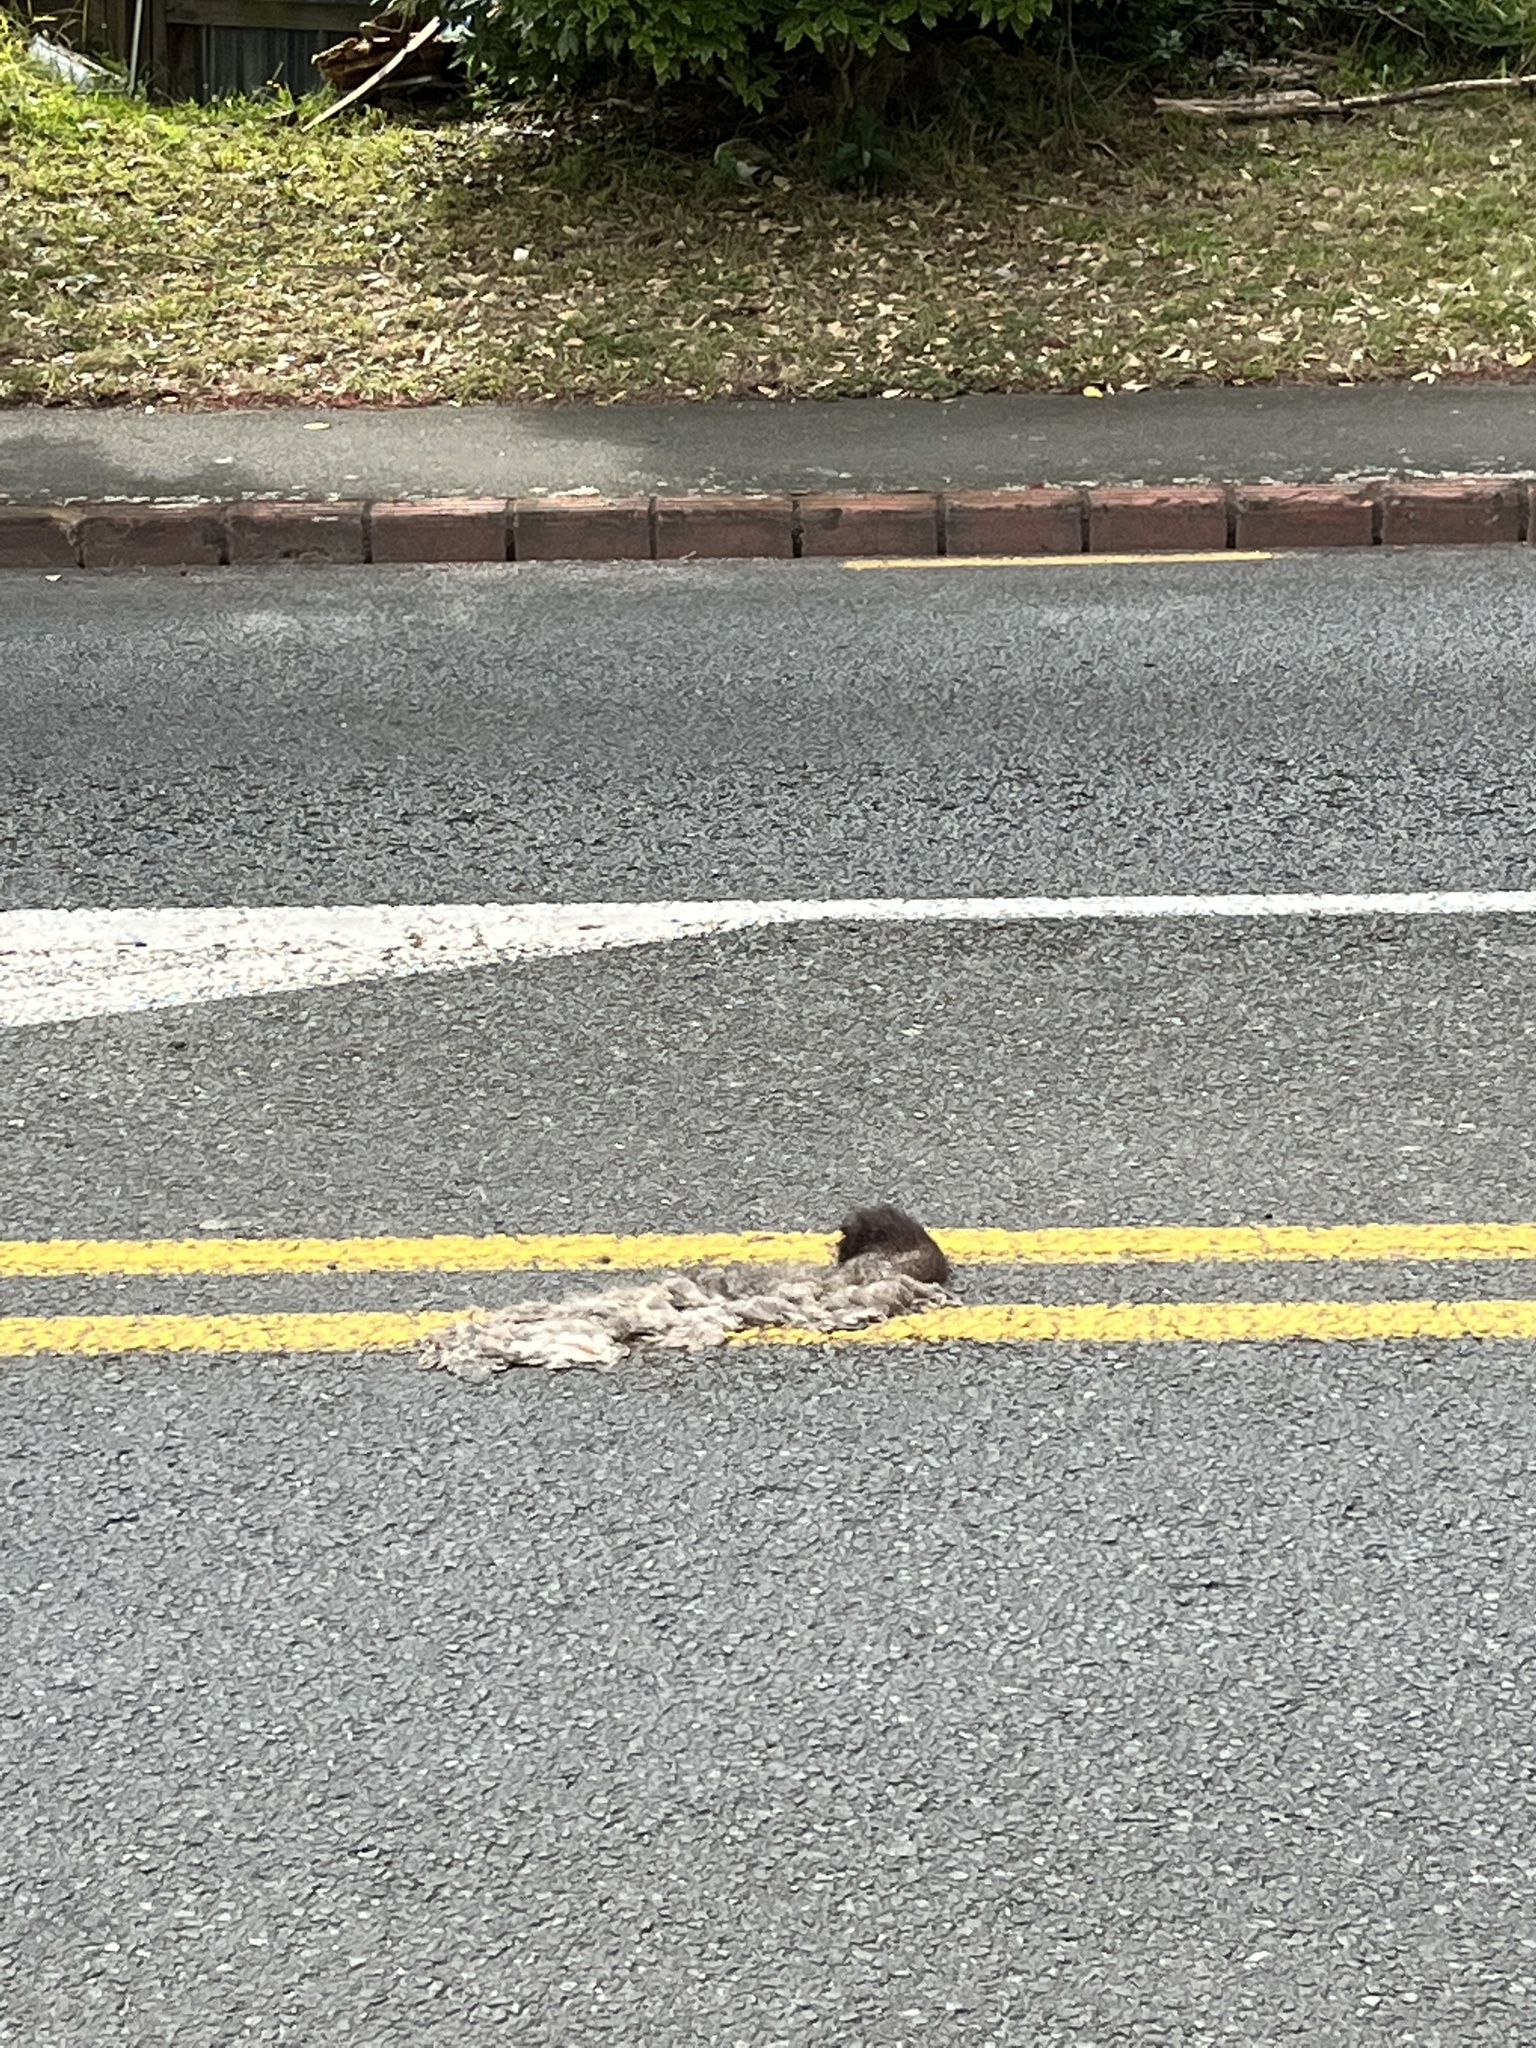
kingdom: Animalia
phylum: Chordata
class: Mammalia
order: Diprotodontia
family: Phalangeridae
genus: Trichosurus
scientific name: Trichosurus vulpecula
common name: Common brushtail
